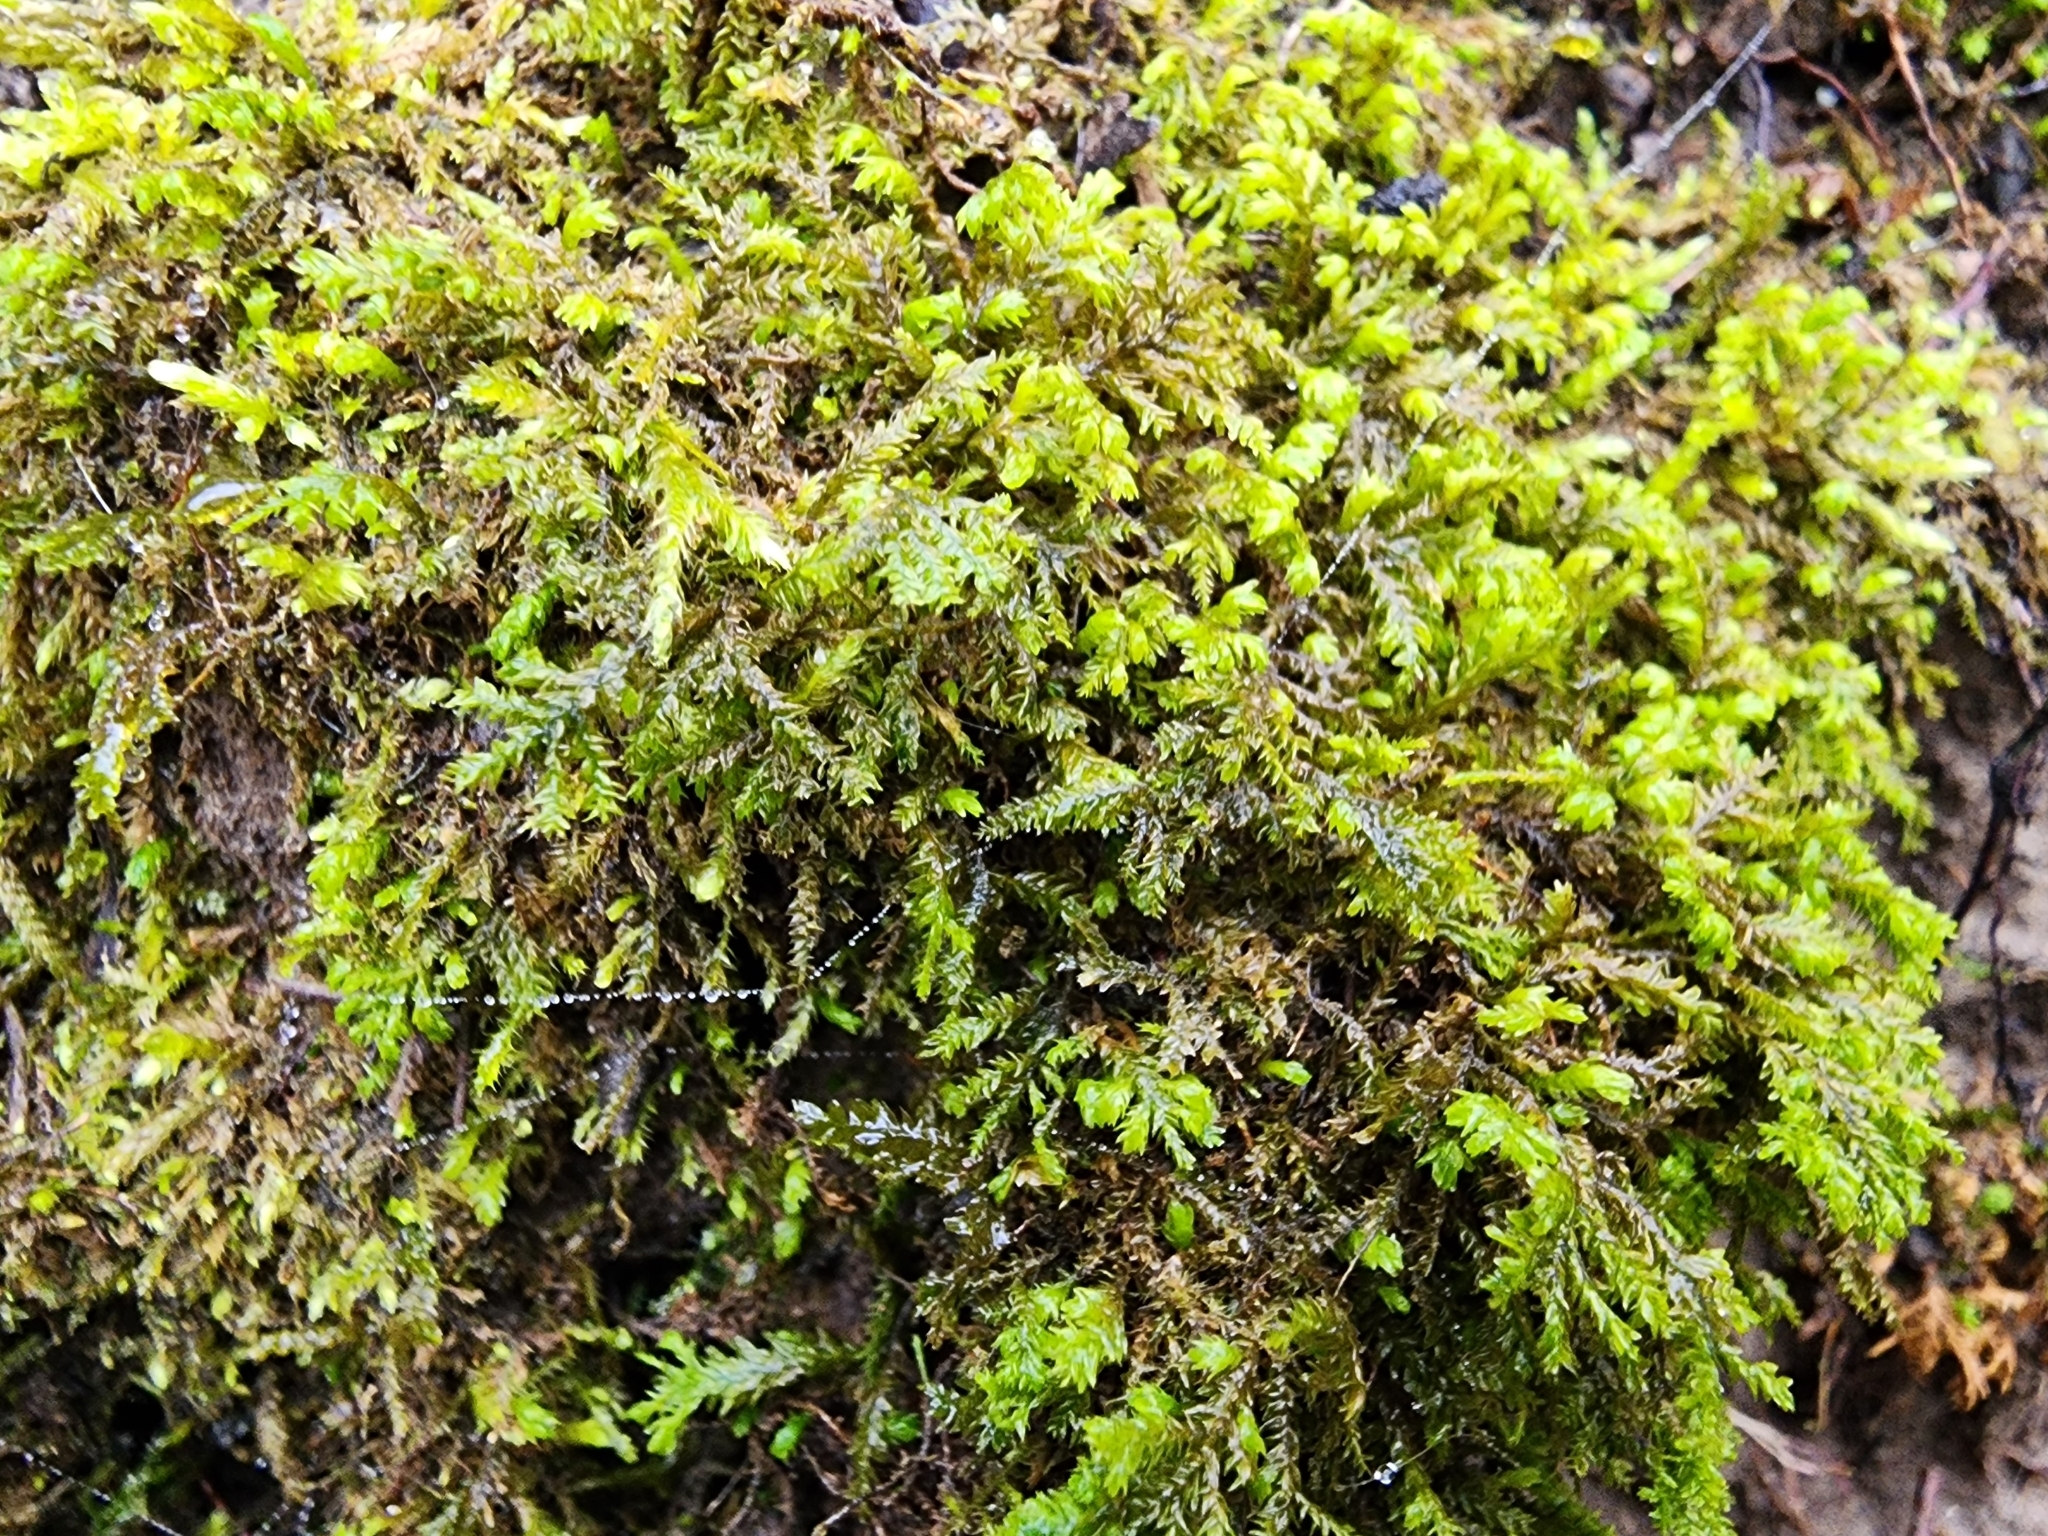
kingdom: Plantae
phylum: Bryophyta
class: Bryopsida
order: Hypnales
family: Neckeraceae
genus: Pseudanomodon
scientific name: Pseudanomodon attenuatus
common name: Tree-skirt moss
